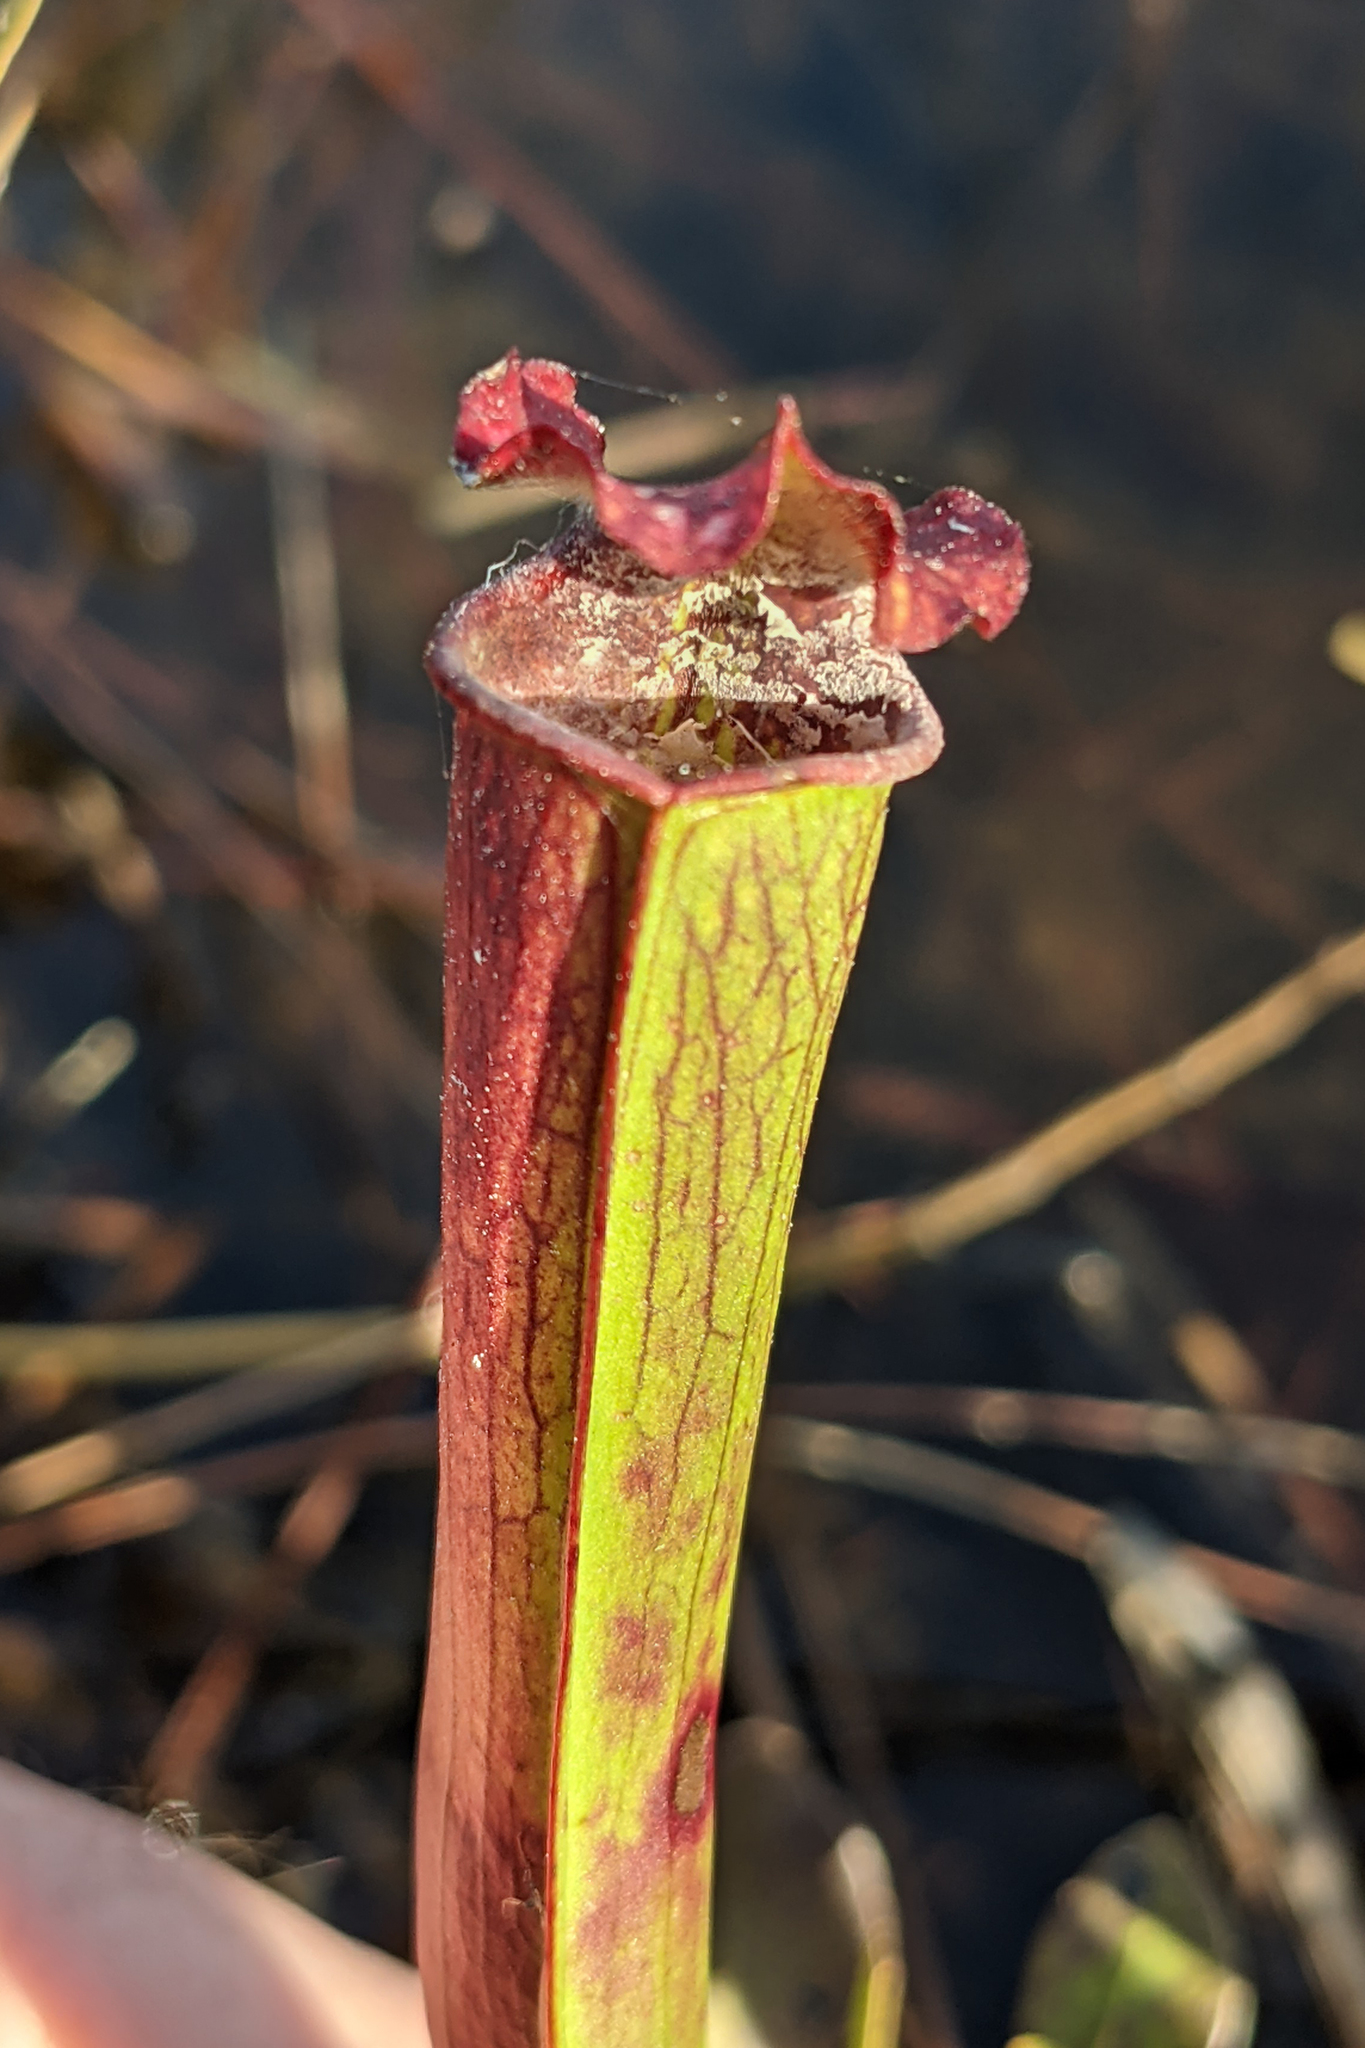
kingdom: Plantae
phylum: Tracheophyta
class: Magnoliopsida
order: Ericales
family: Sarraceniaceae
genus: Sarracenia
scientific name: Sarracenia leucophylla
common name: Purple trumpetleaf
